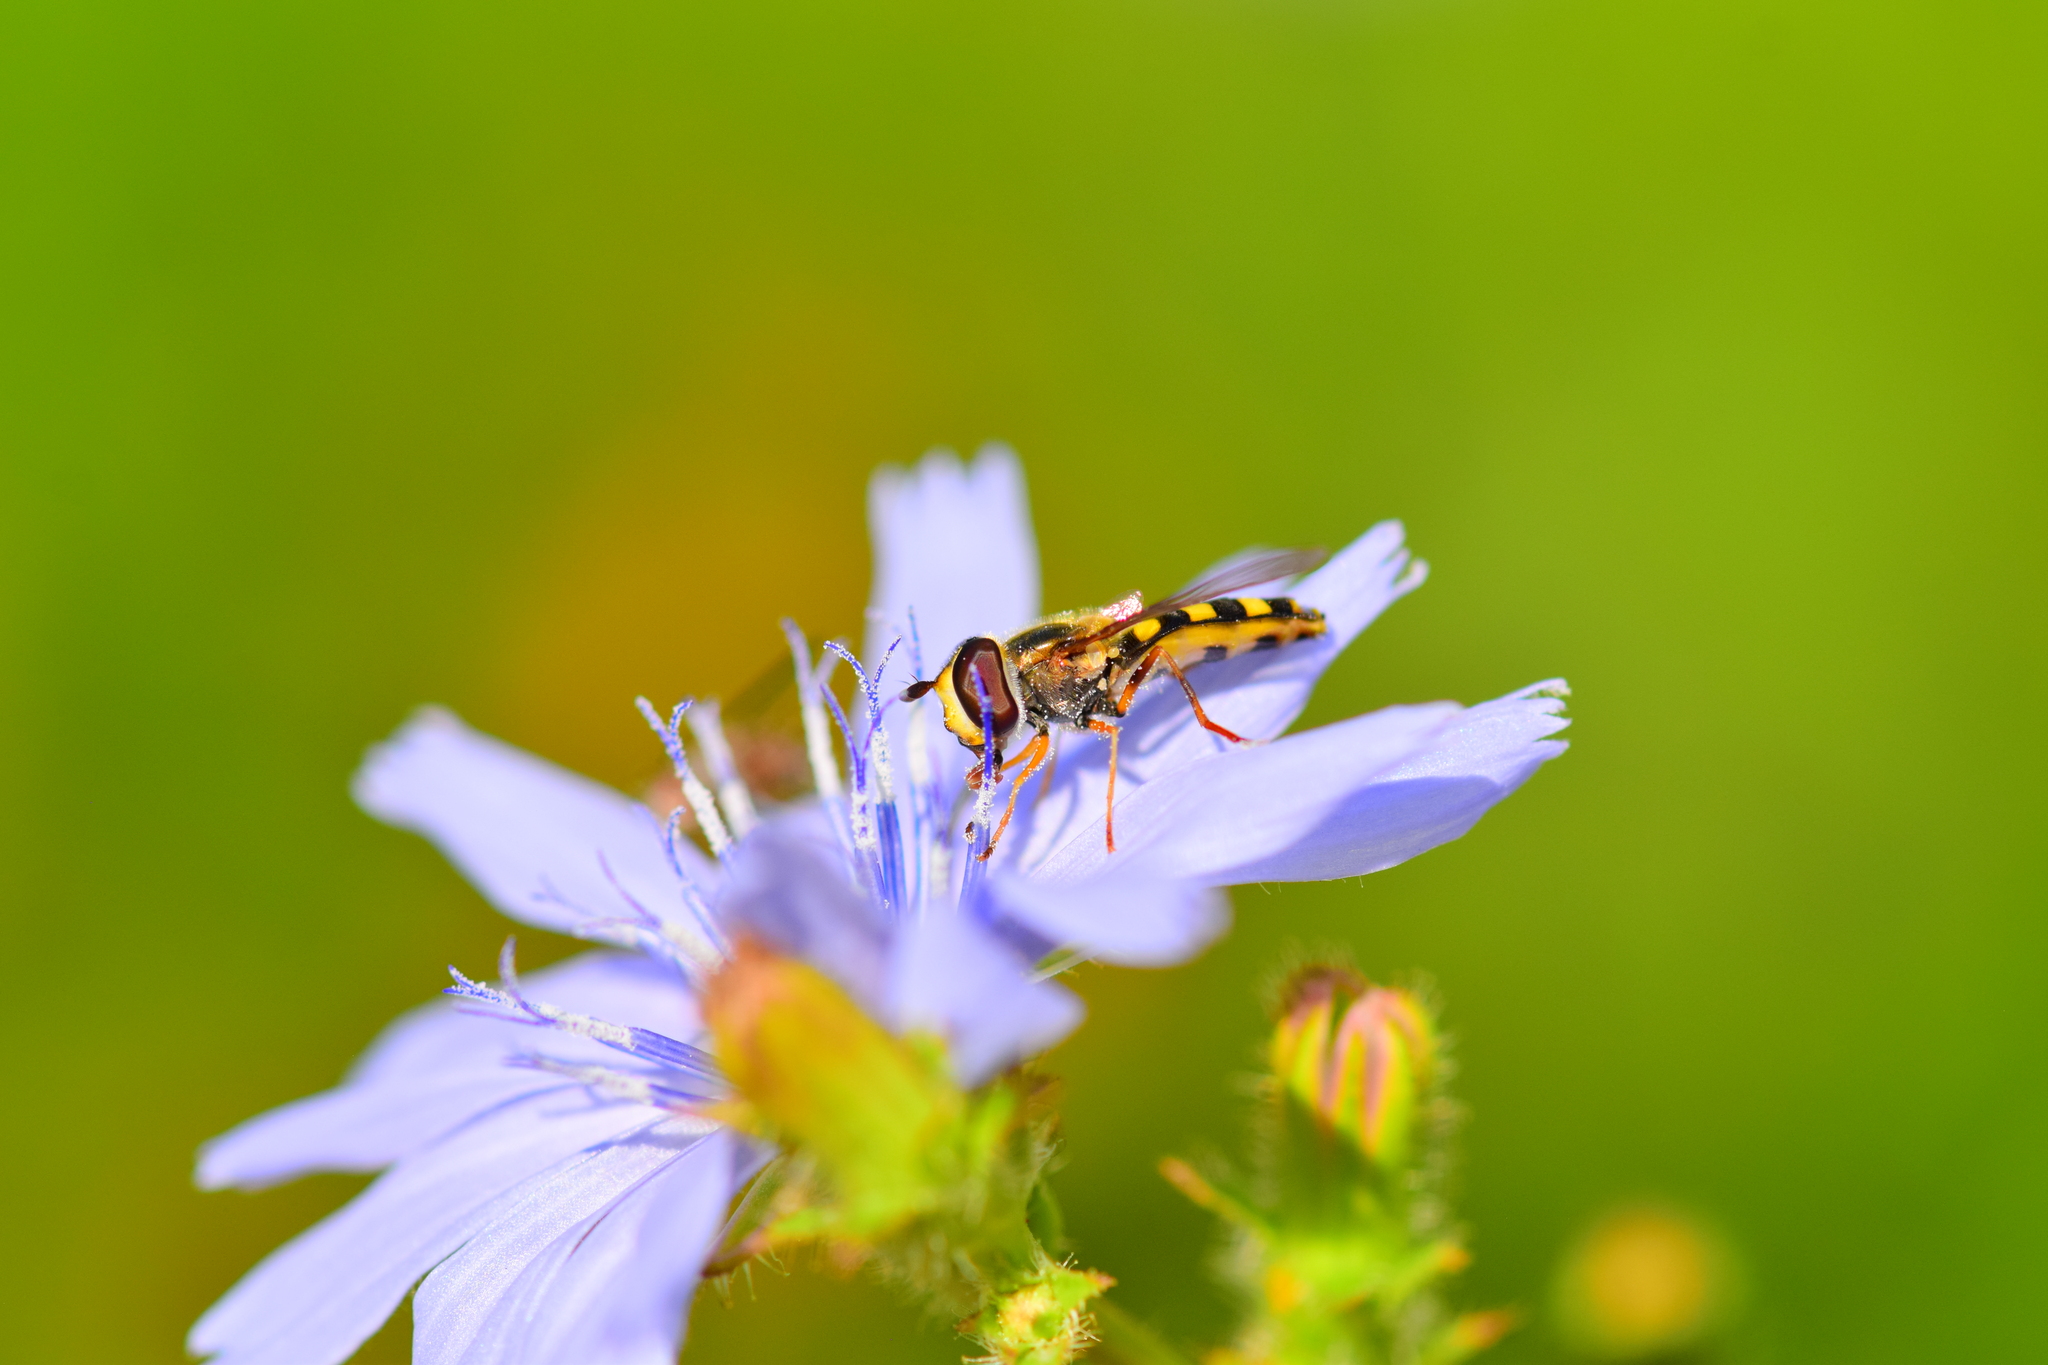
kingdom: Animalia
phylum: Arthropoda
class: Insecta
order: Diptera
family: Syrphidae
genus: Eupeodes
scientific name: Eupeodes
